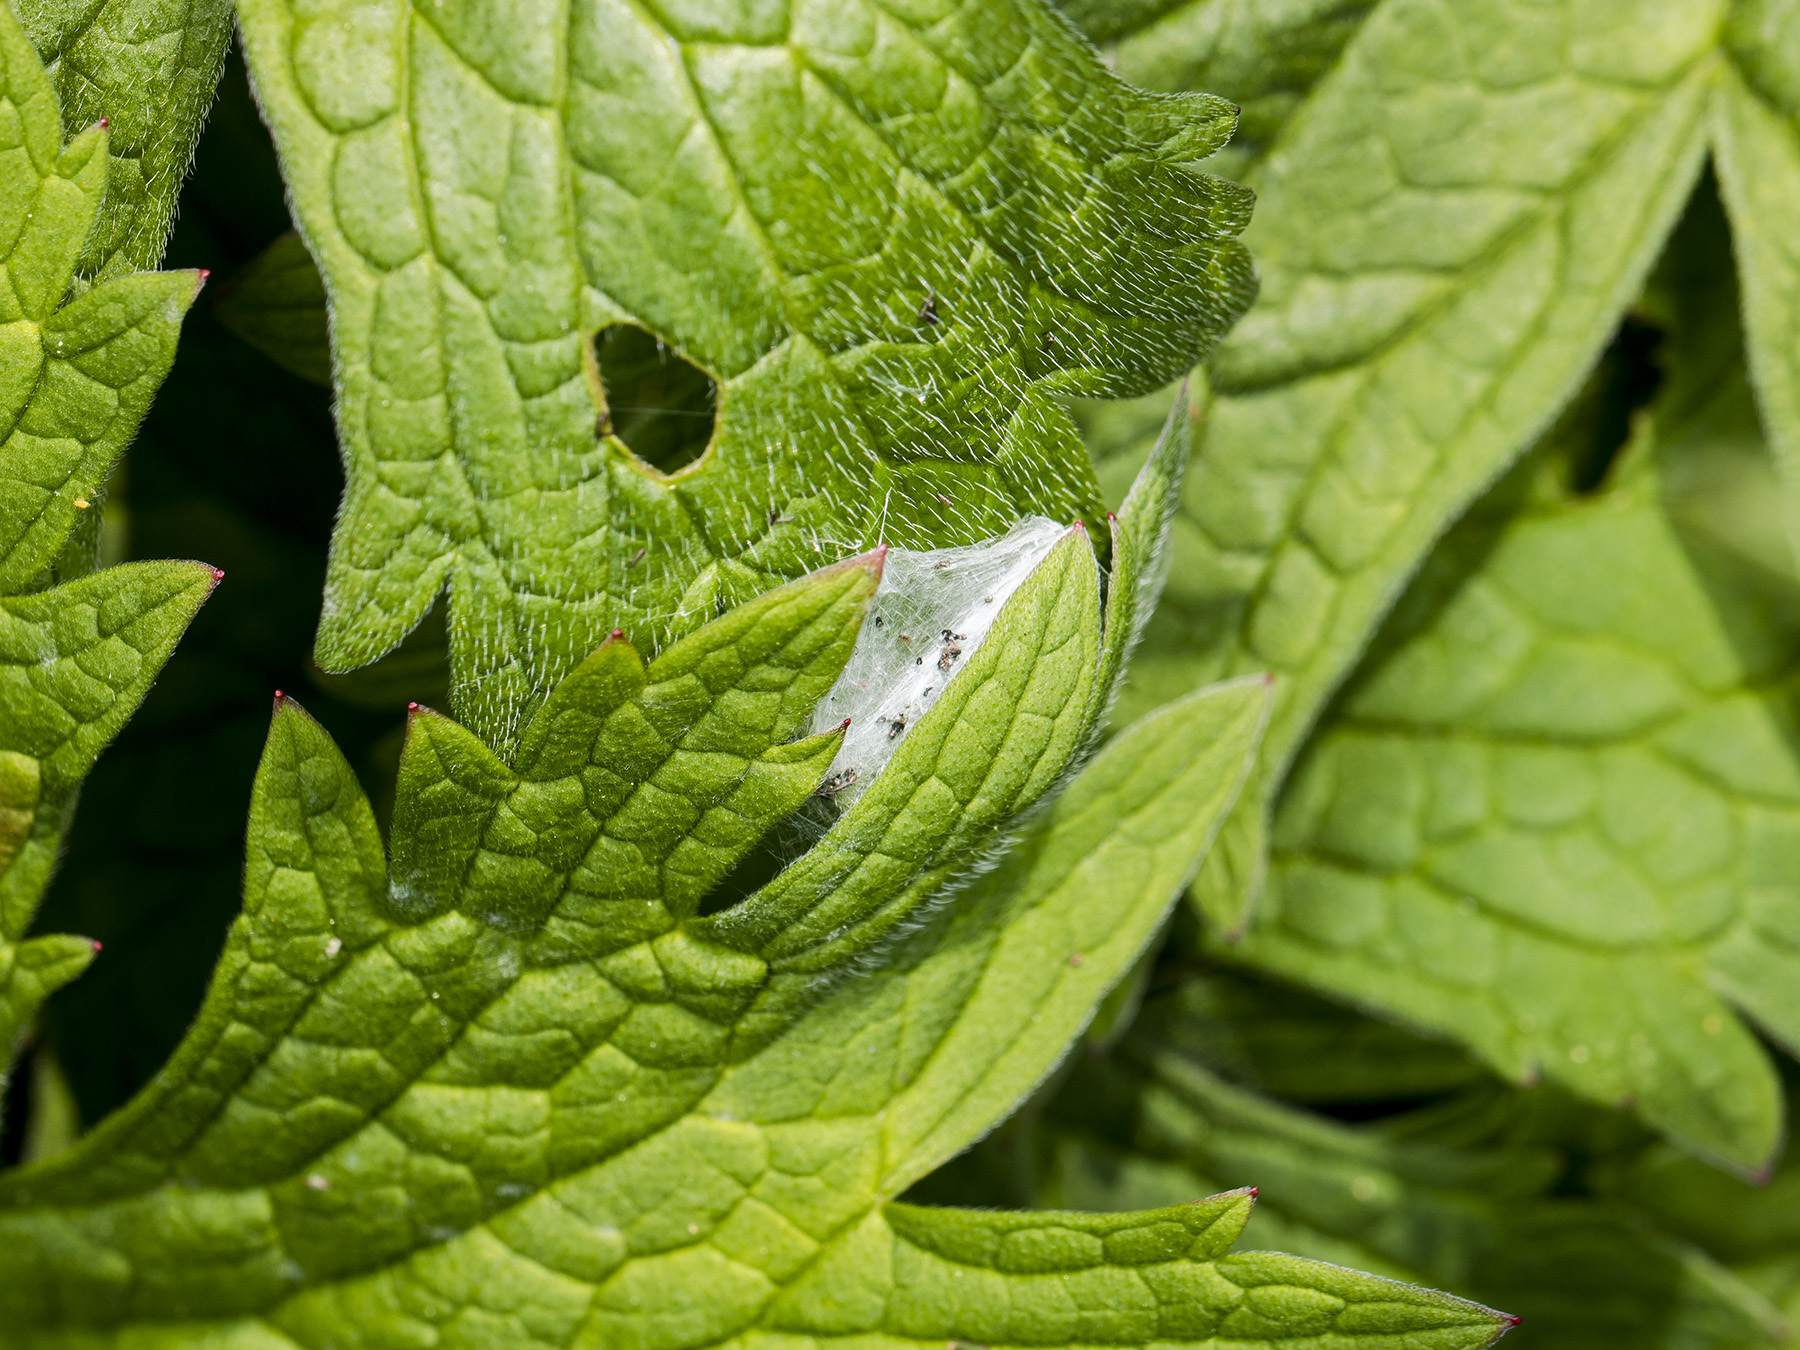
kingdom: Animalia
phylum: Arthropoda
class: Arachnida
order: Araneae
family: Cheiracanthiidae
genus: Cheiracanthium
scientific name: Cheiracanthium erraticum
